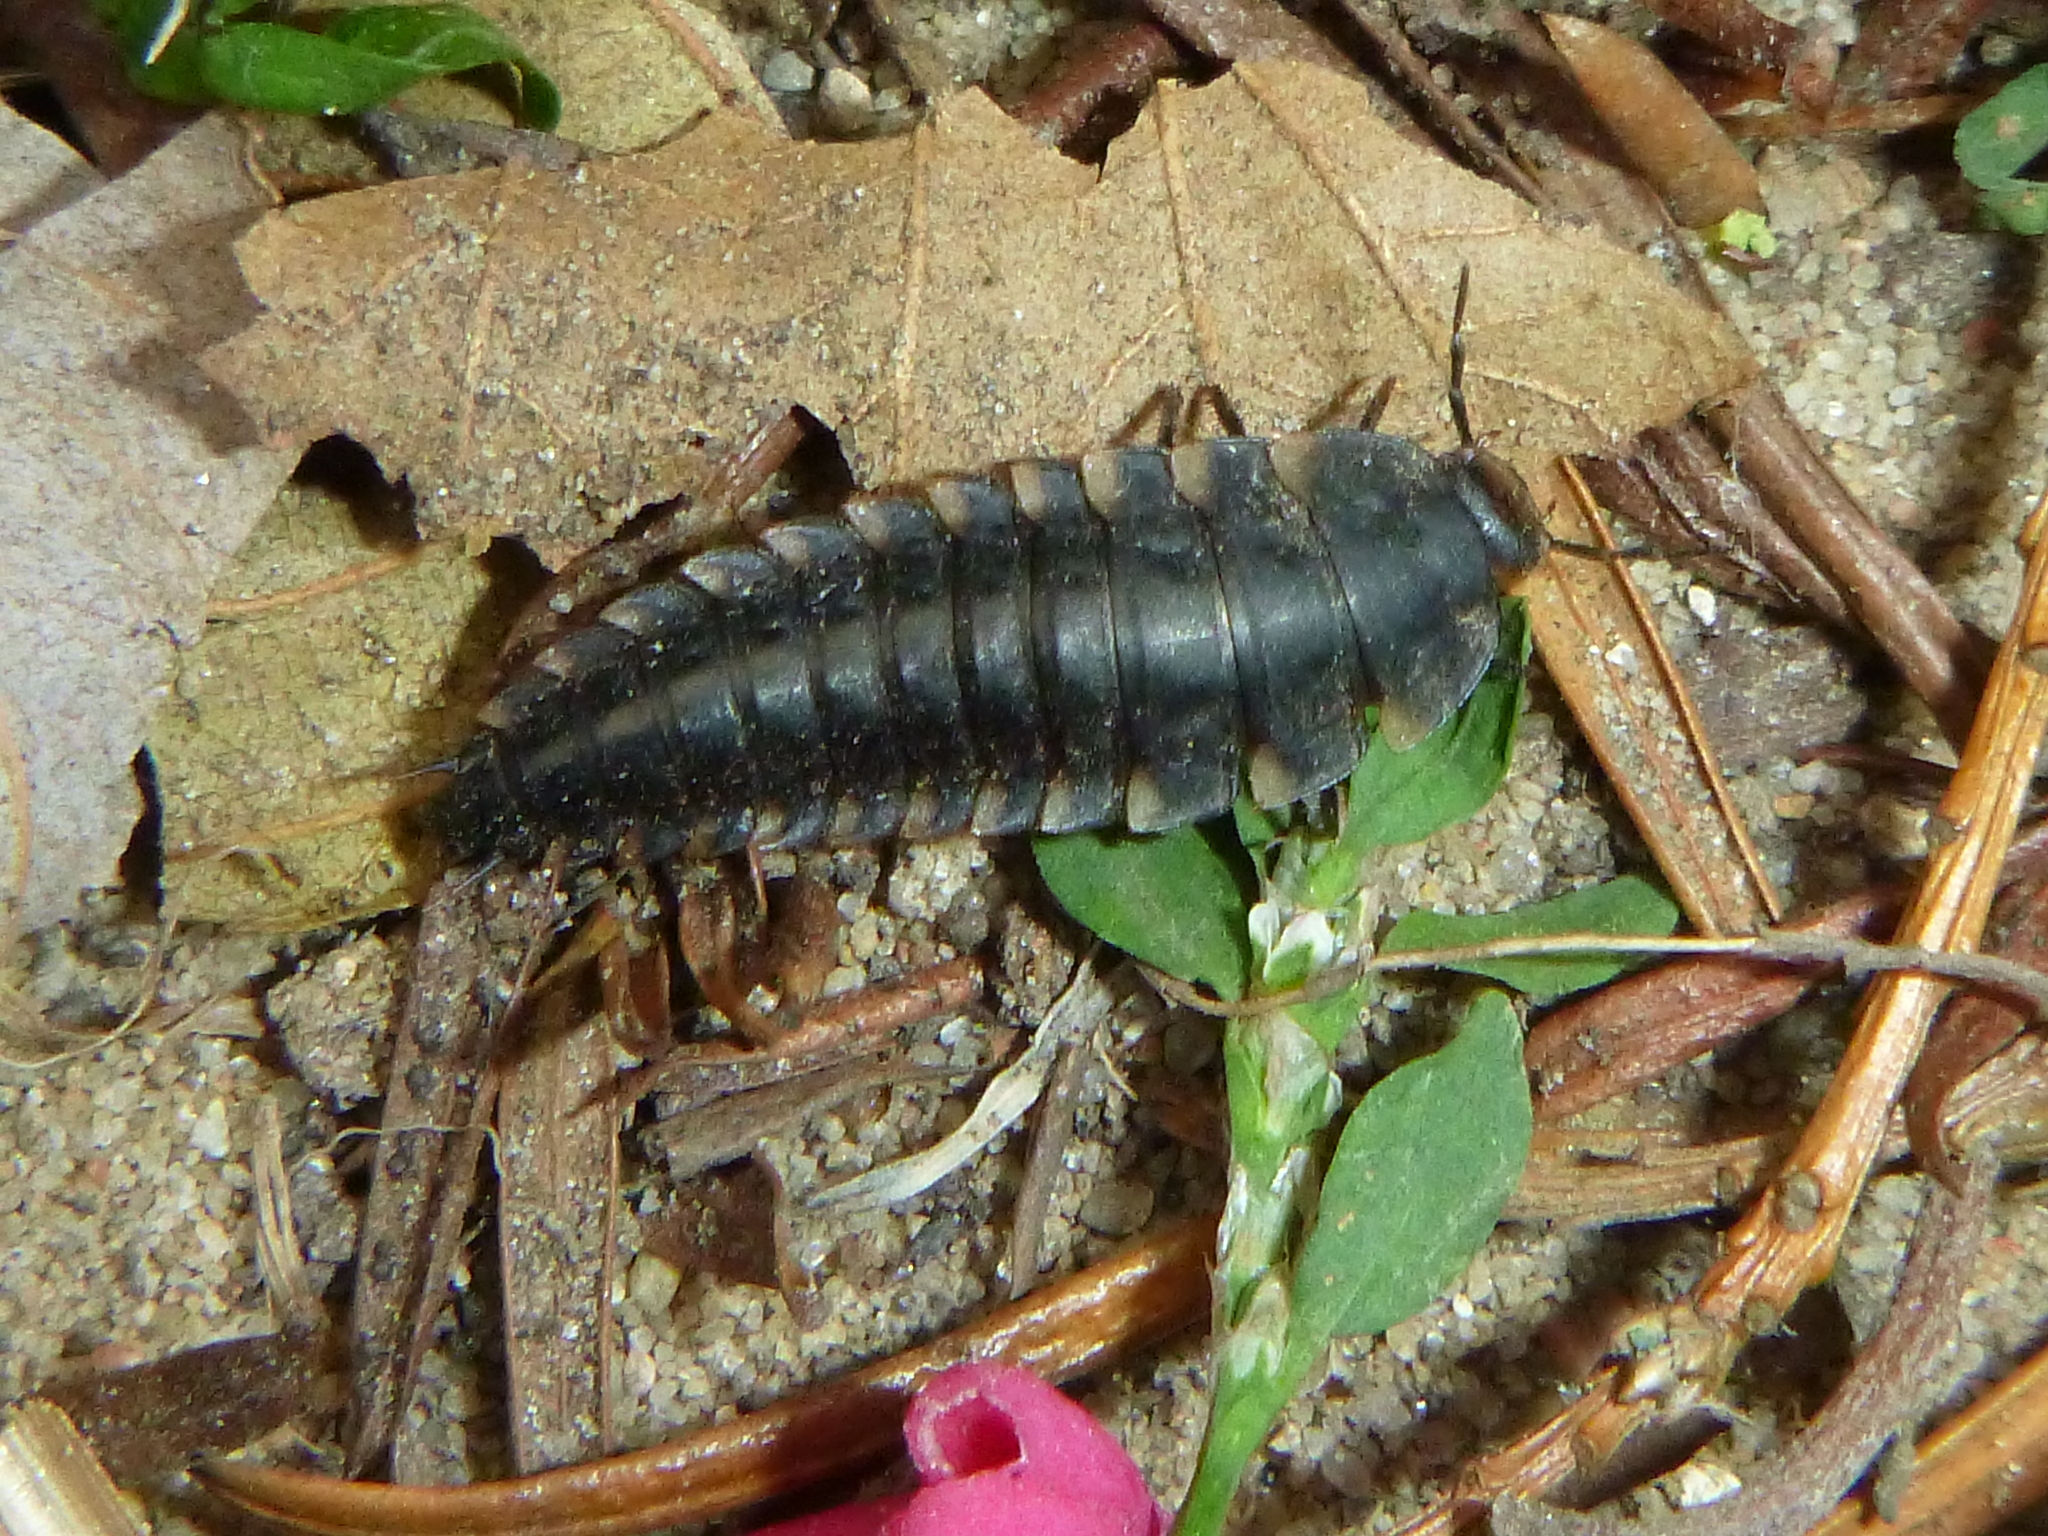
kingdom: Animalia
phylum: Arthropoda
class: Insecta
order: Coleoptera
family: Staphylinidae
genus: Silpha
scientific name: Silpha tristis
